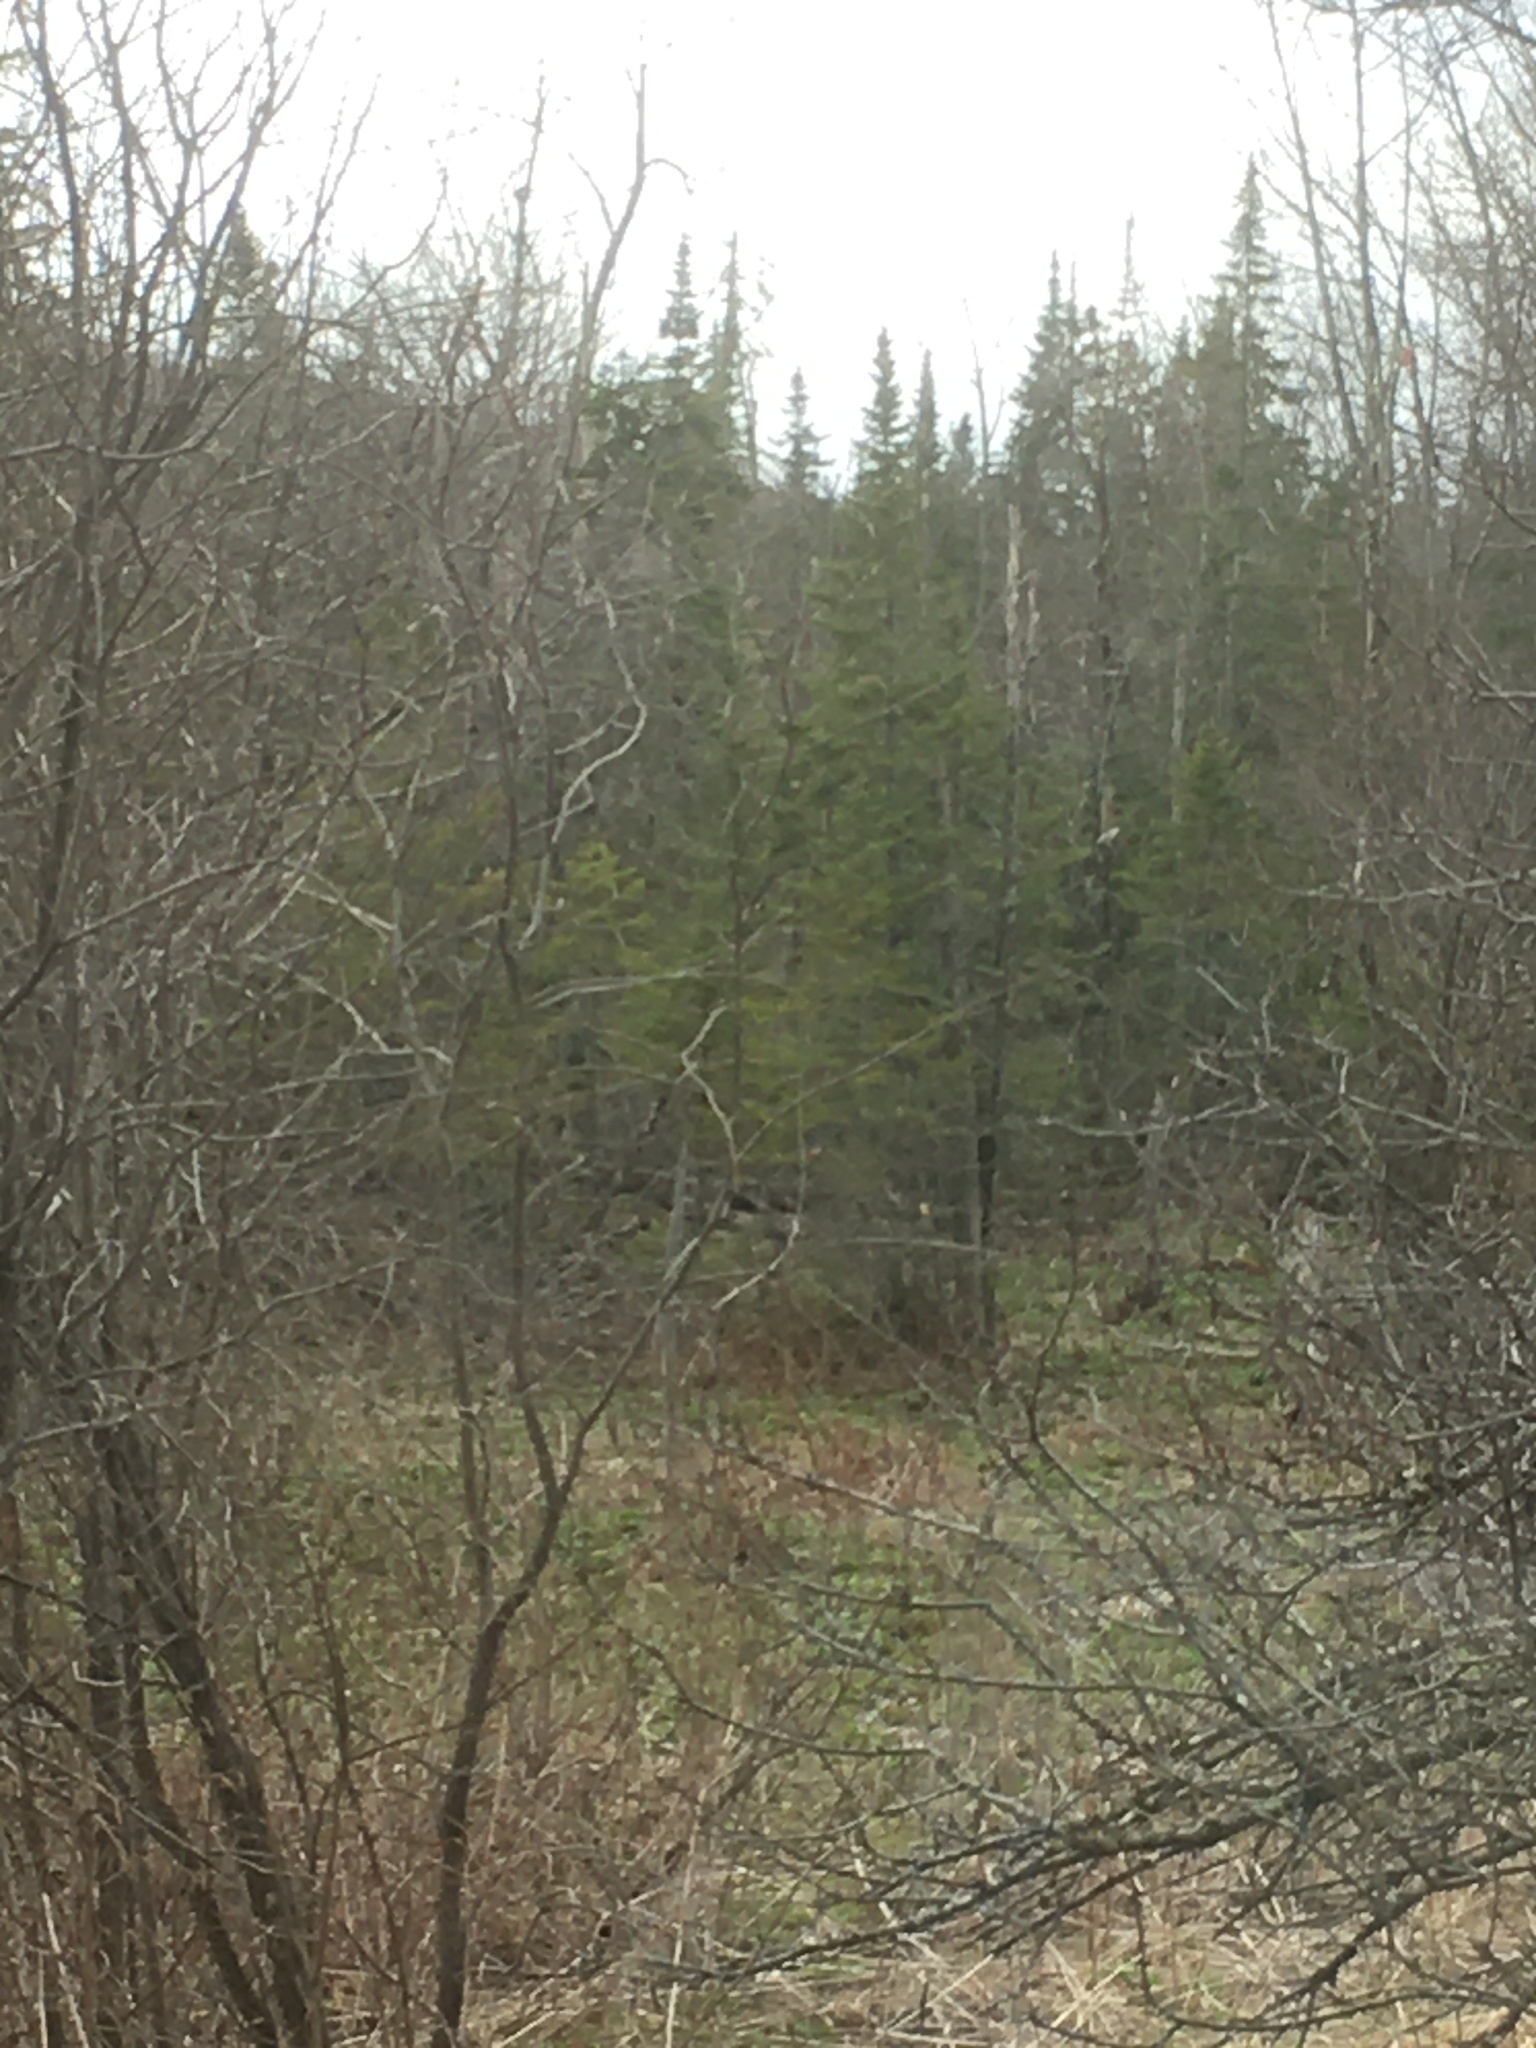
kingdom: Plantae
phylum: Tracheophyta
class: Pinopsida
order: Pinales
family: Pinaceae
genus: Abies
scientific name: Abies balsamea
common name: Balsam fir
